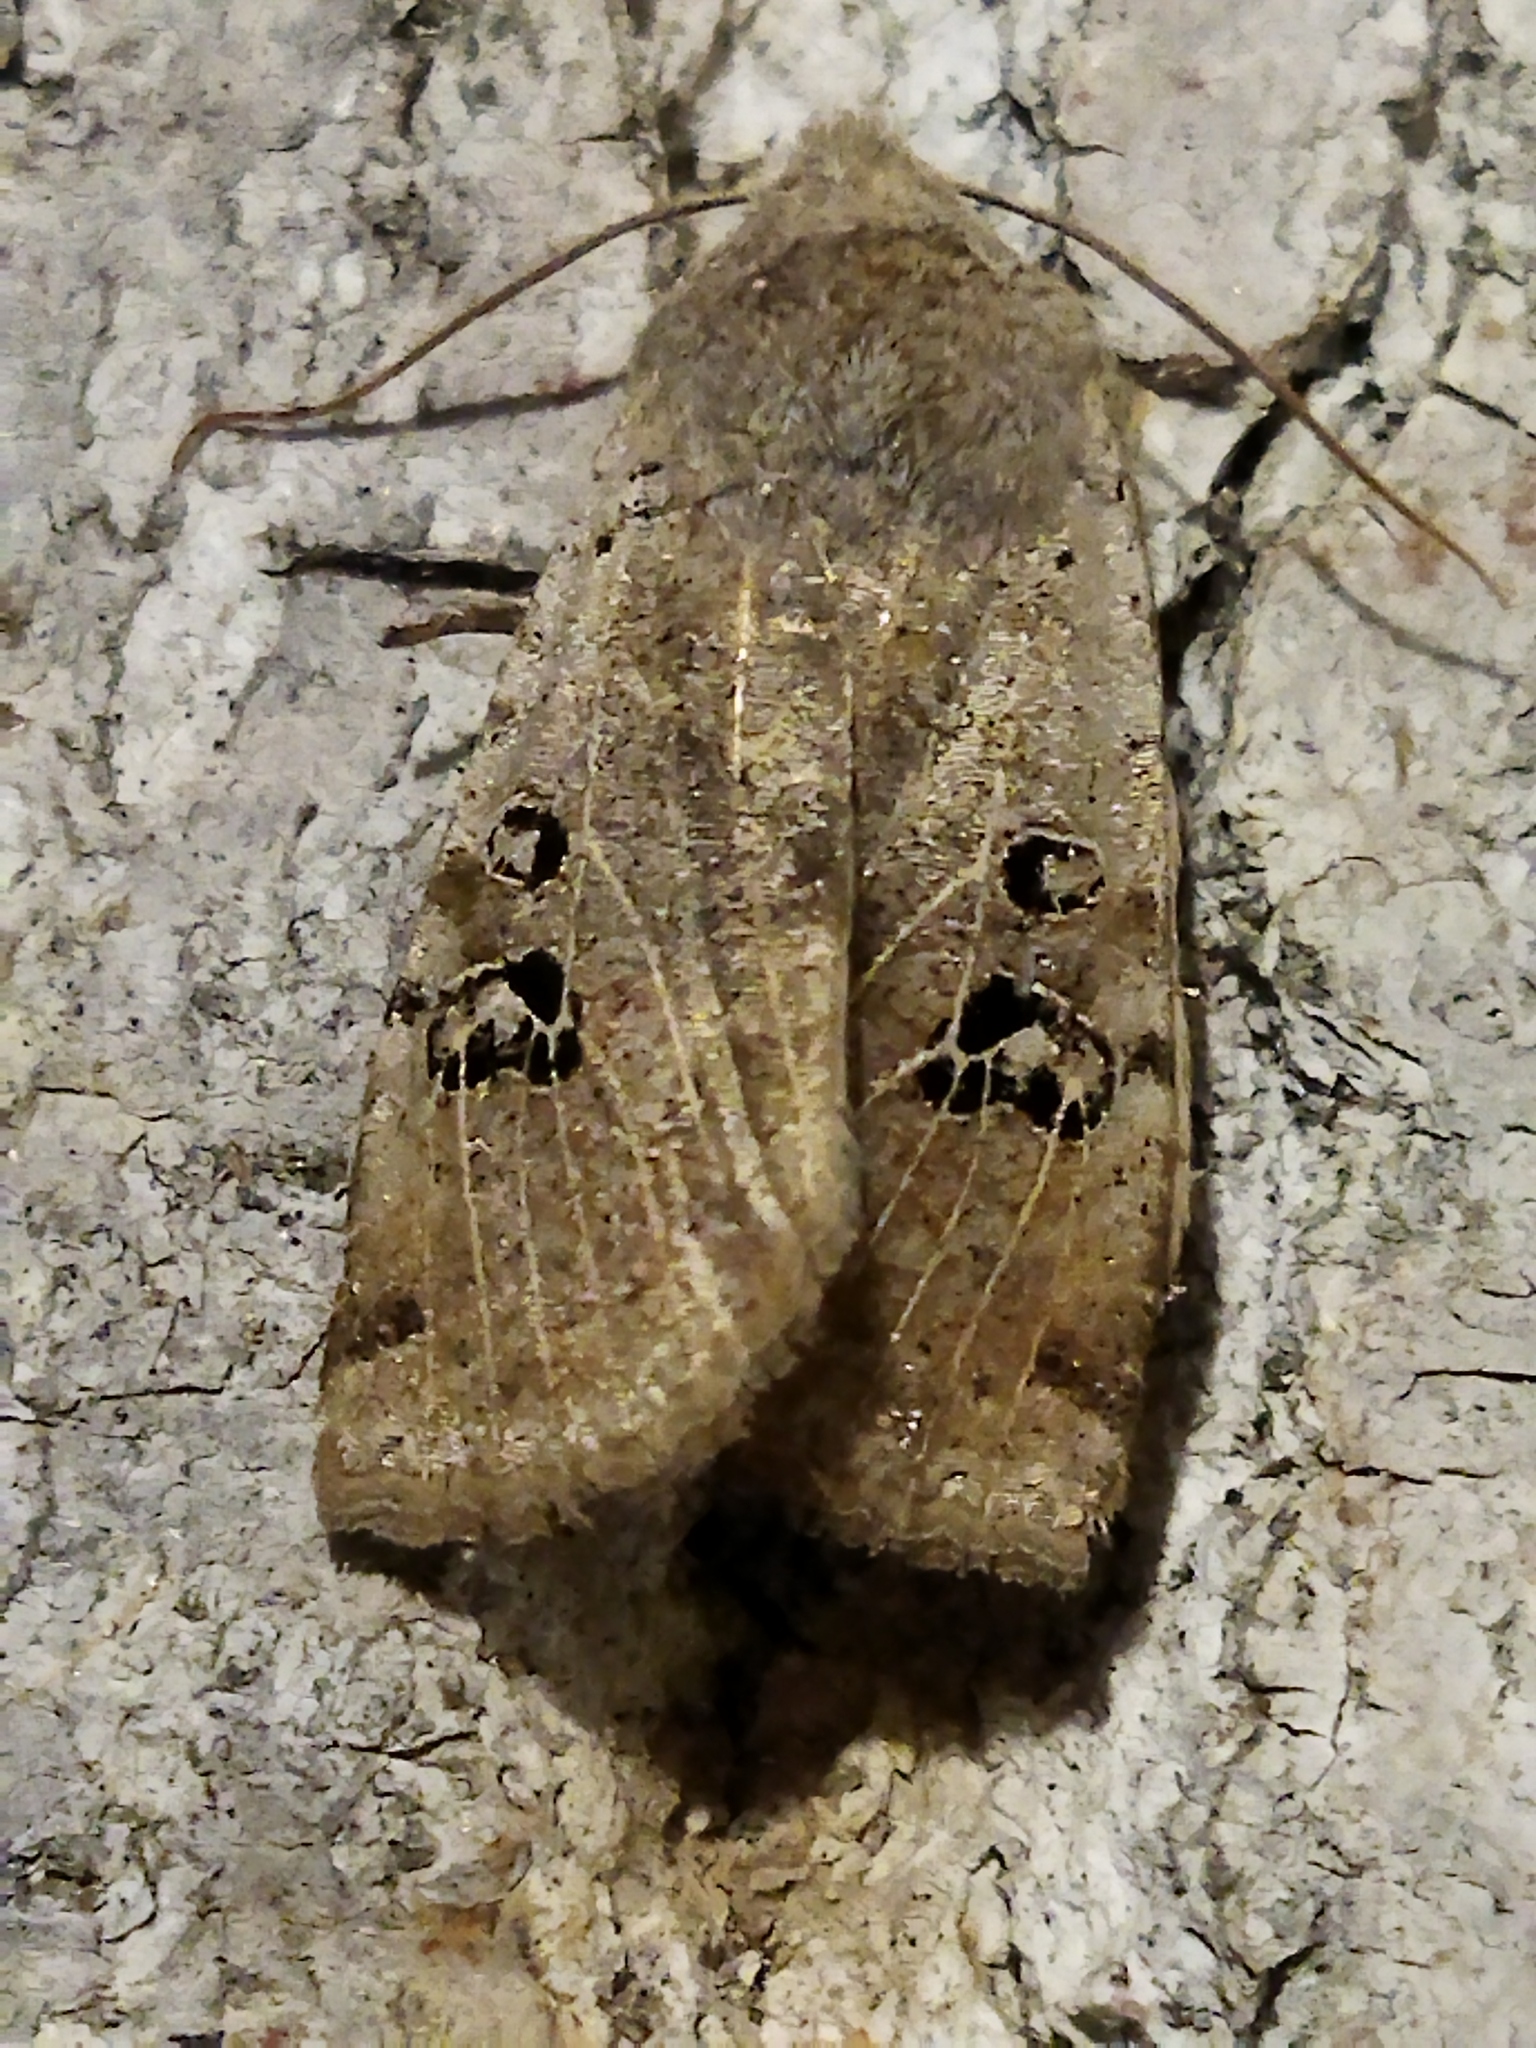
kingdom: Animalia
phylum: Arthropoda
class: Insecta
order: Lepidoptera
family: Noctuidae
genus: Conistra
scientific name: Conistra rubiginosa
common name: Black-spotted chestnut
